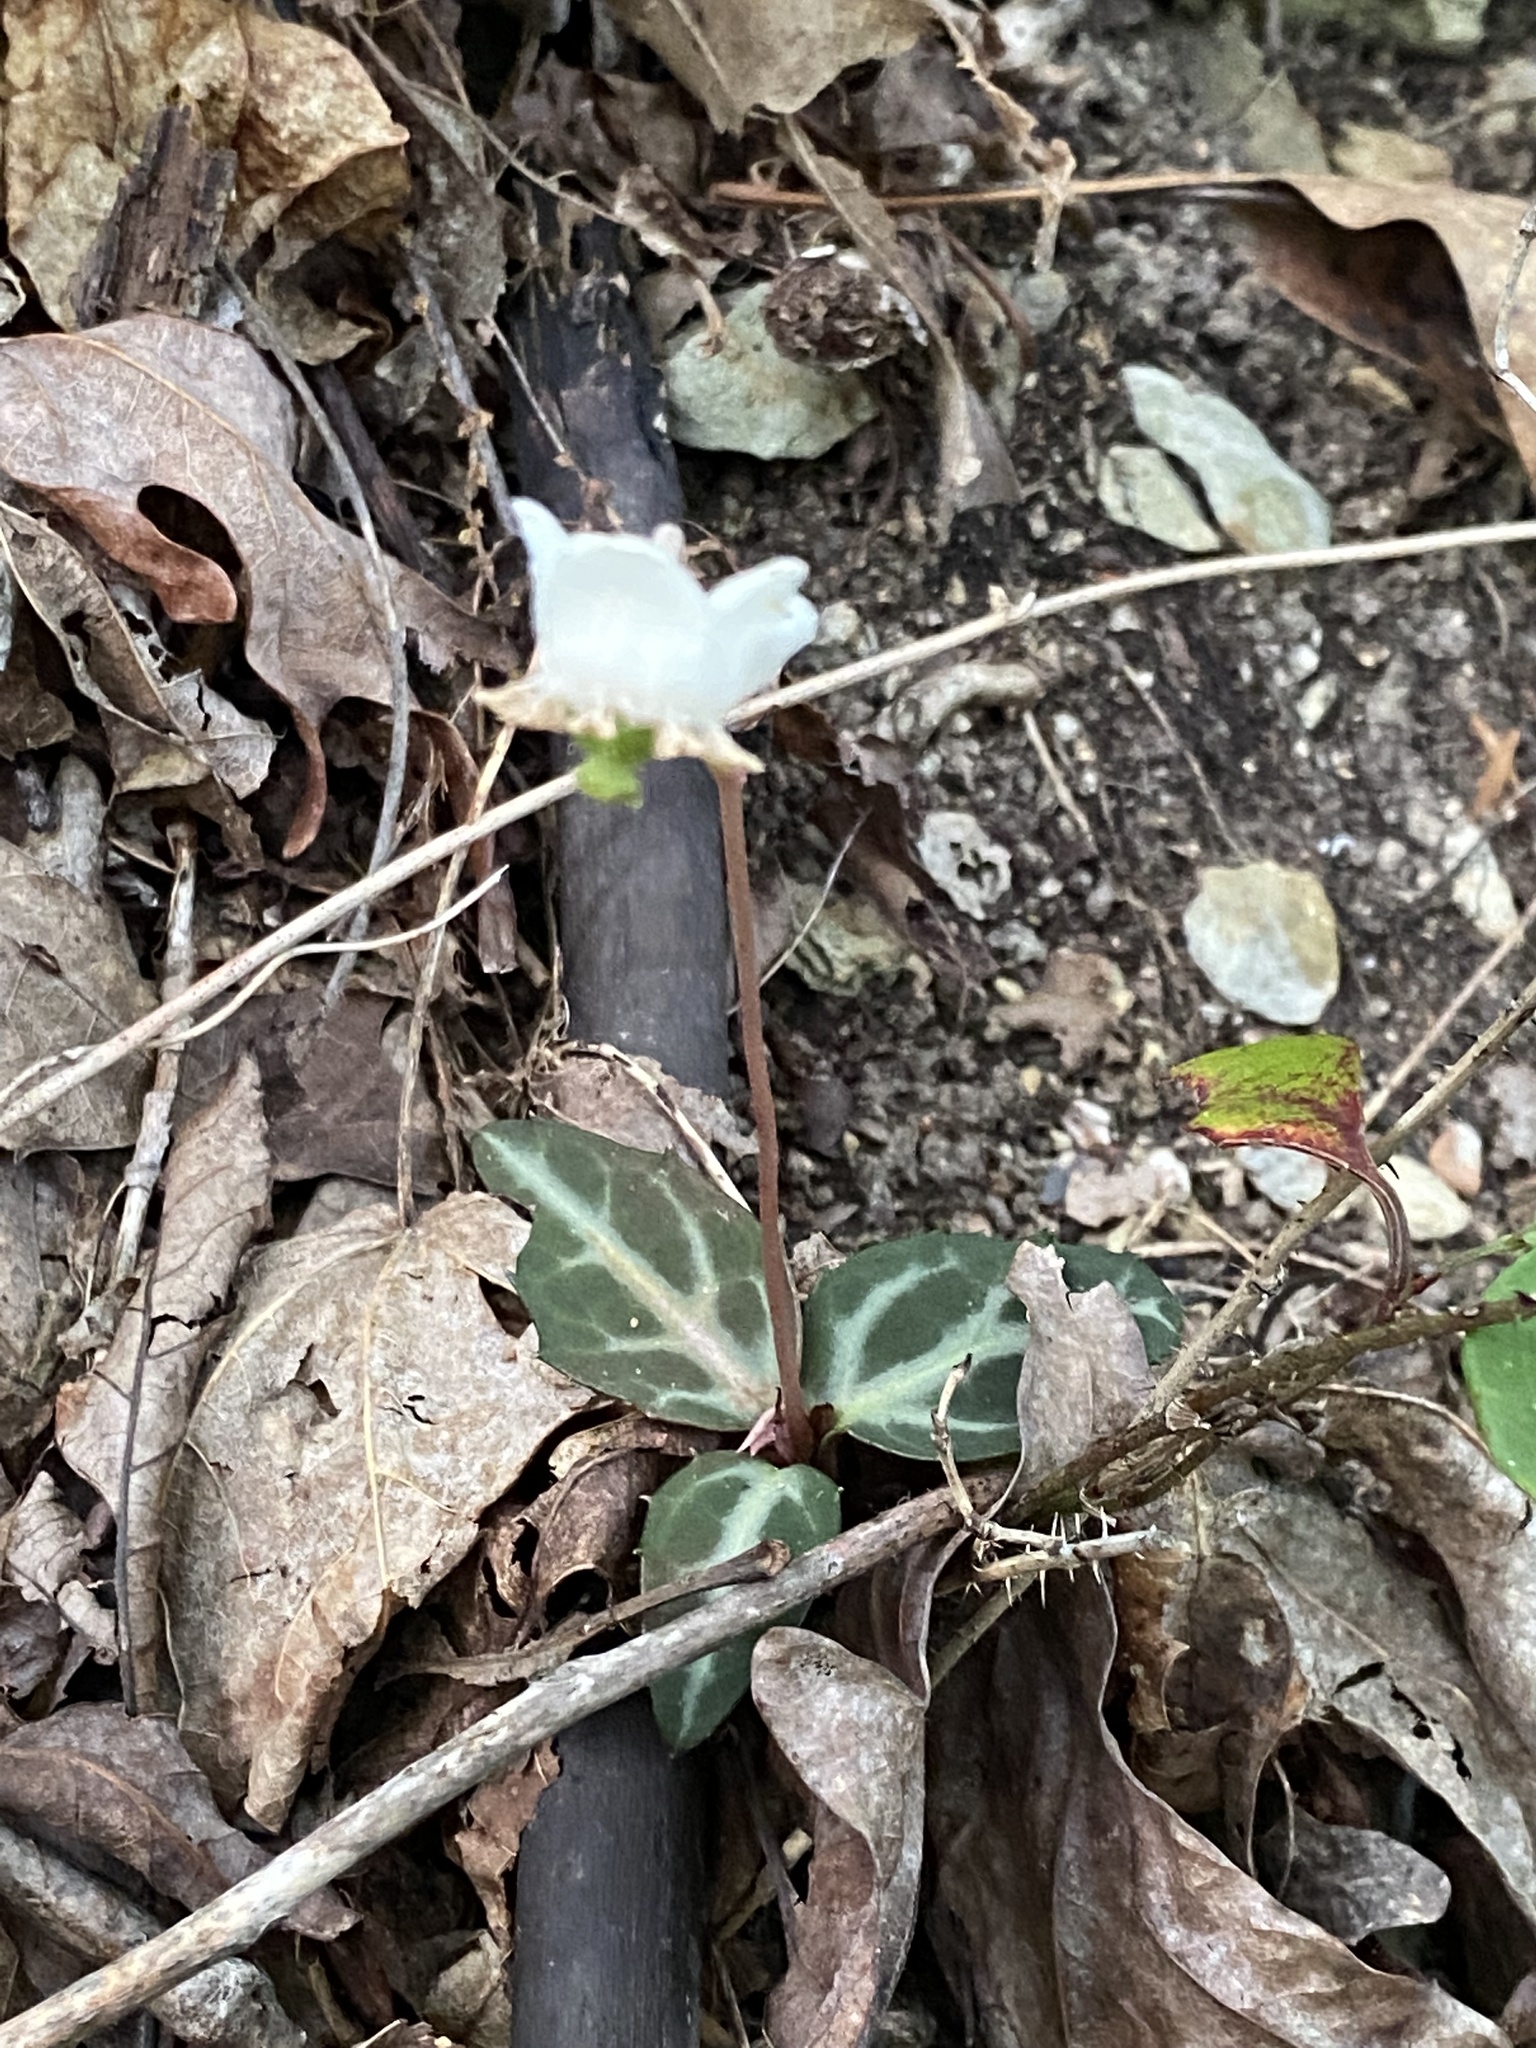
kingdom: Plantae
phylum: Tracheophyta
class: Magnoliopsida
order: Ericales
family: Ericaceae
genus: Chimaphila
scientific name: Chimaphila maculata
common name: Spotted pipsissewa
